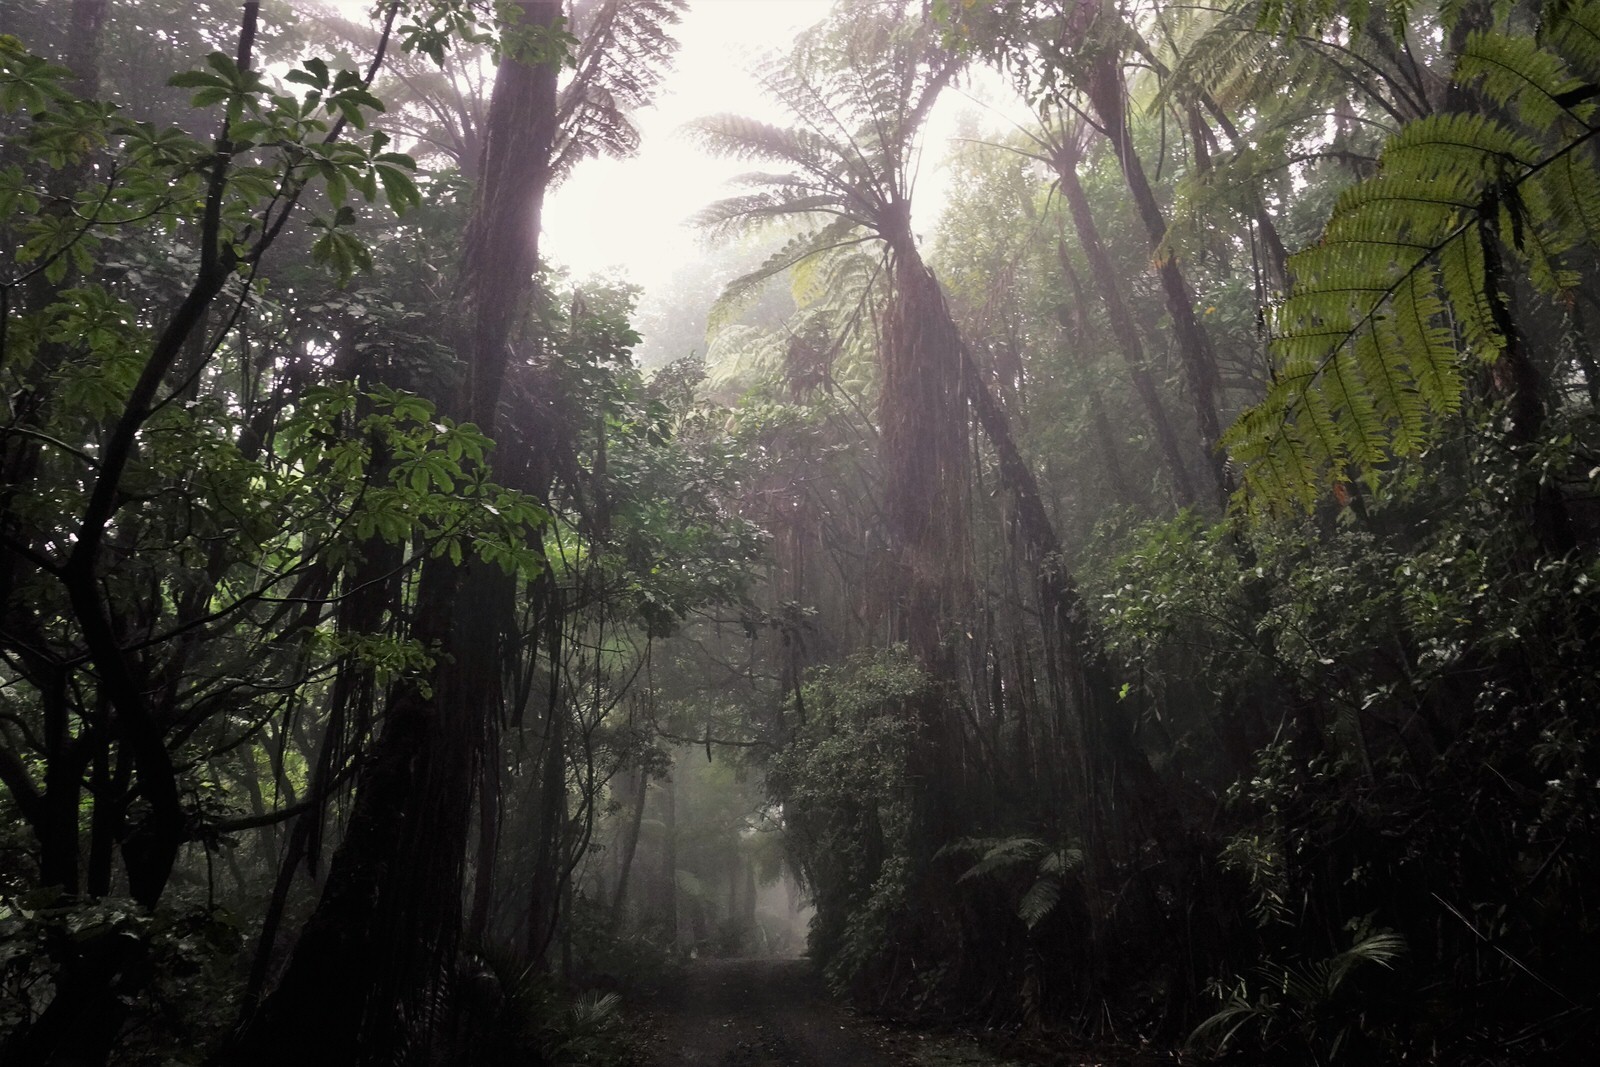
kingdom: Plantae
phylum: Tracheophyta
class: Polypodiopsida
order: Cyatheales
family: Cyatheaceae
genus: Sphaeropteris
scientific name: Sphaeropteris medullaris
